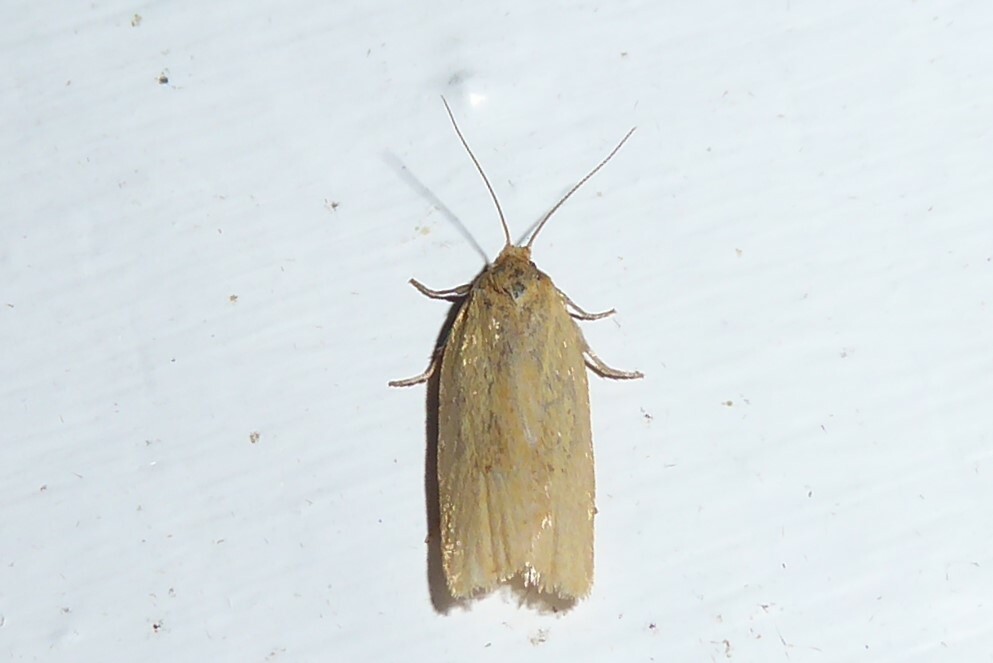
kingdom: Animalia
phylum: Arthropoda
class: Insecta
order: Lepidoptera
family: Tortricidae
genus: Clepsis
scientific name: Clepsis
